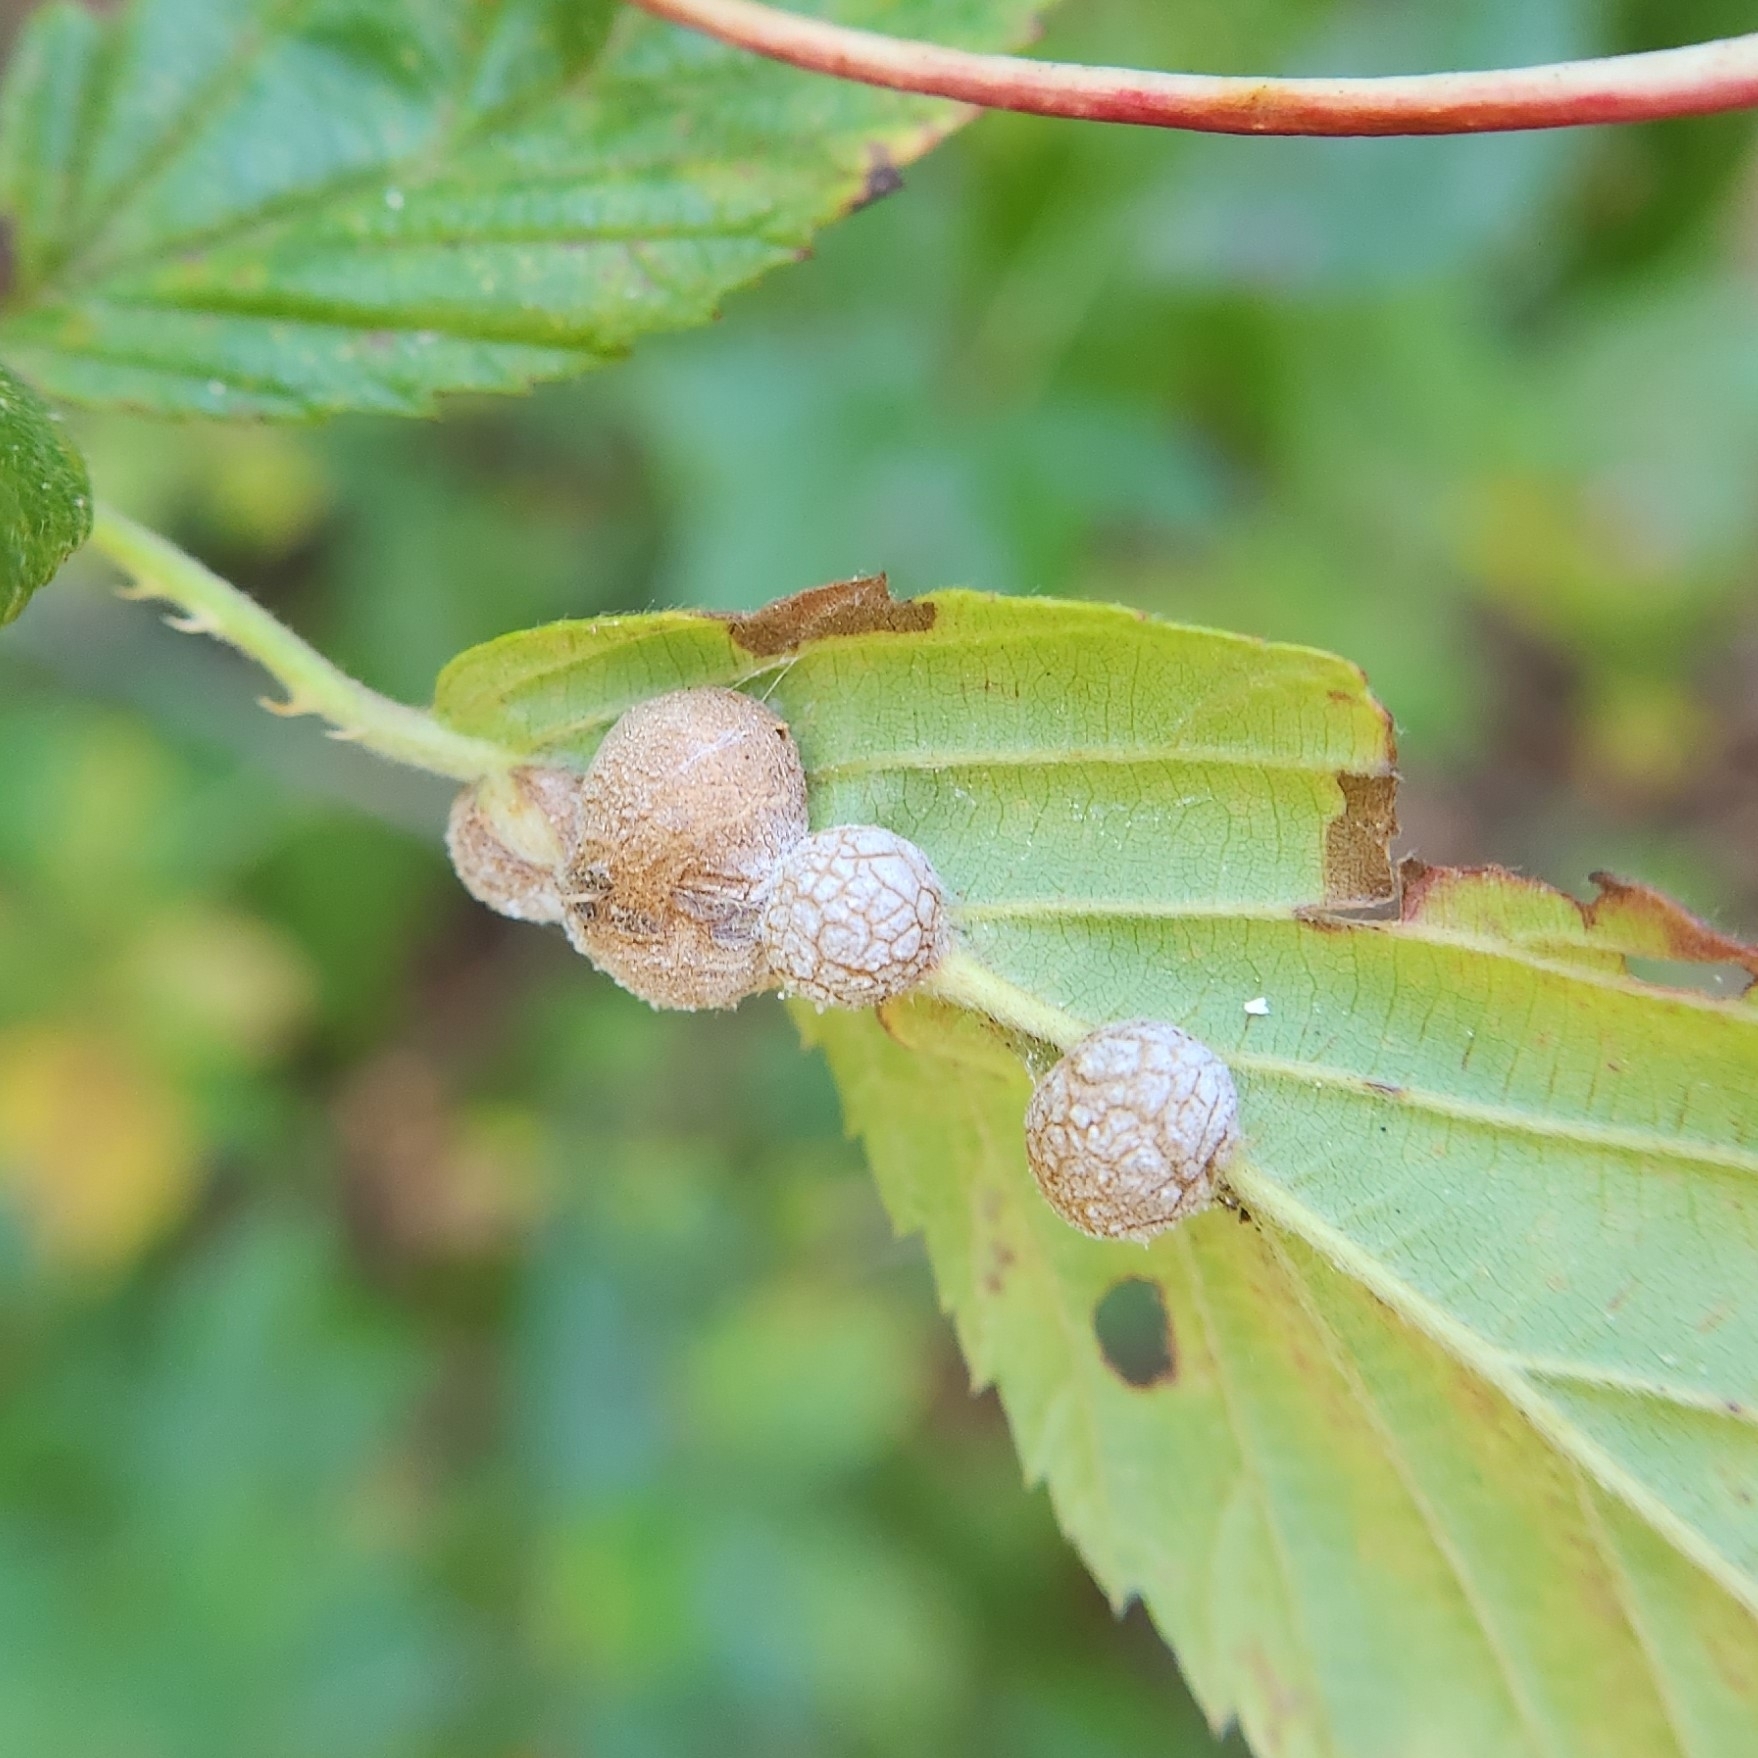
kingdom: Animalia
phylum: Arthropoda
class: Insecta
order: Diptera
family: Cecidomyiidae
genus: Neolasioptera
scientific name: Neolasioptera farinosa
